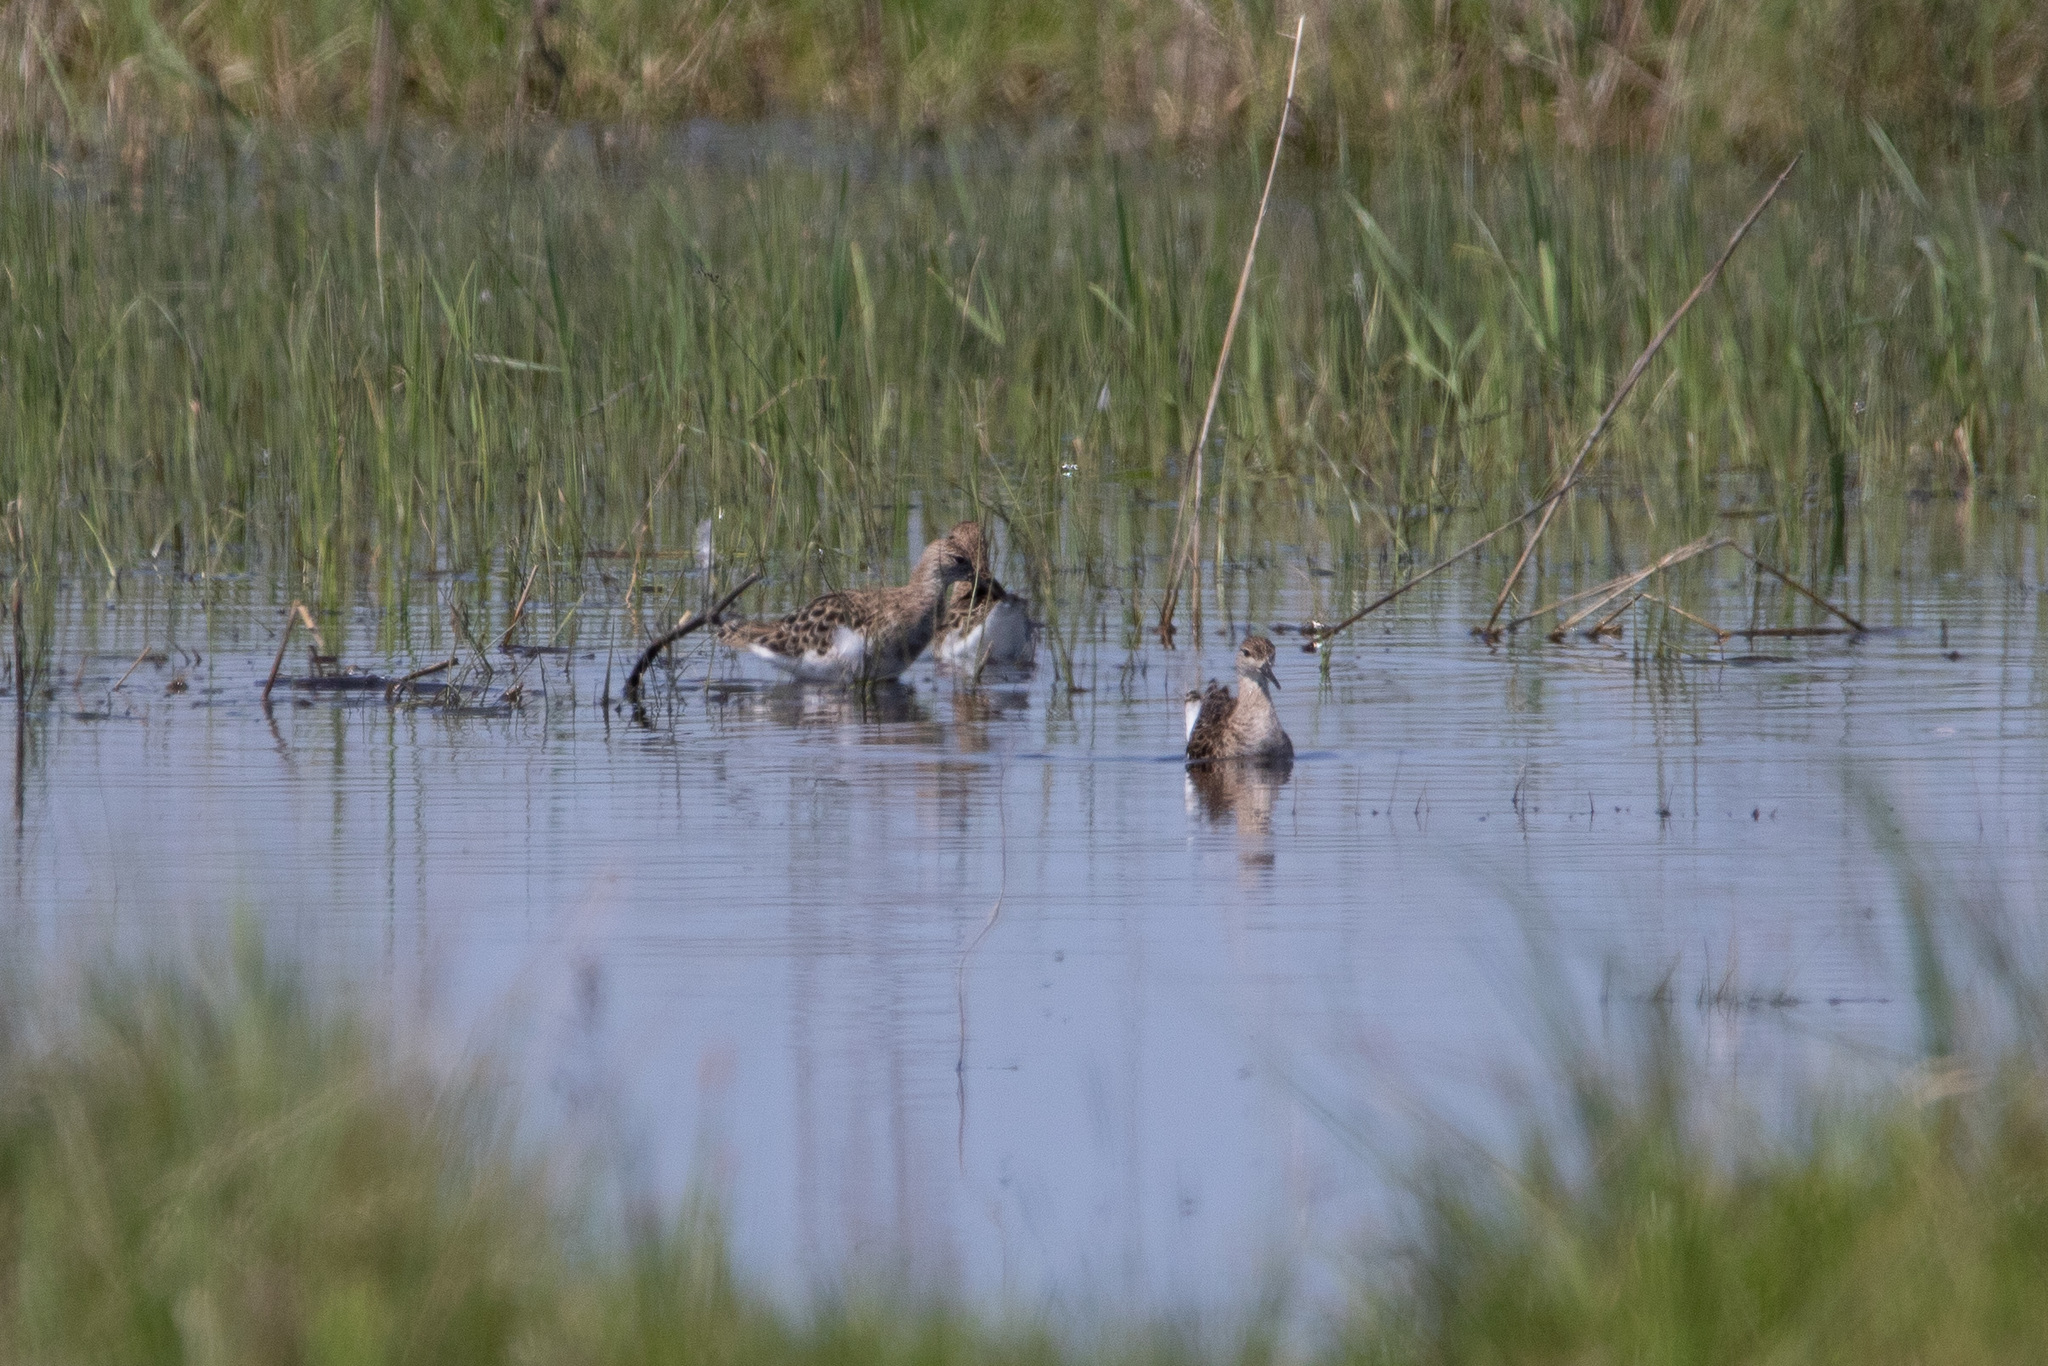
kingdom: Animalia
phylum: Chordata
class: Aves
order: Charadriiformes
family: Scolopacidae
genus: Calidris
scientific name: Calidris pugnax
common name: Ruff
